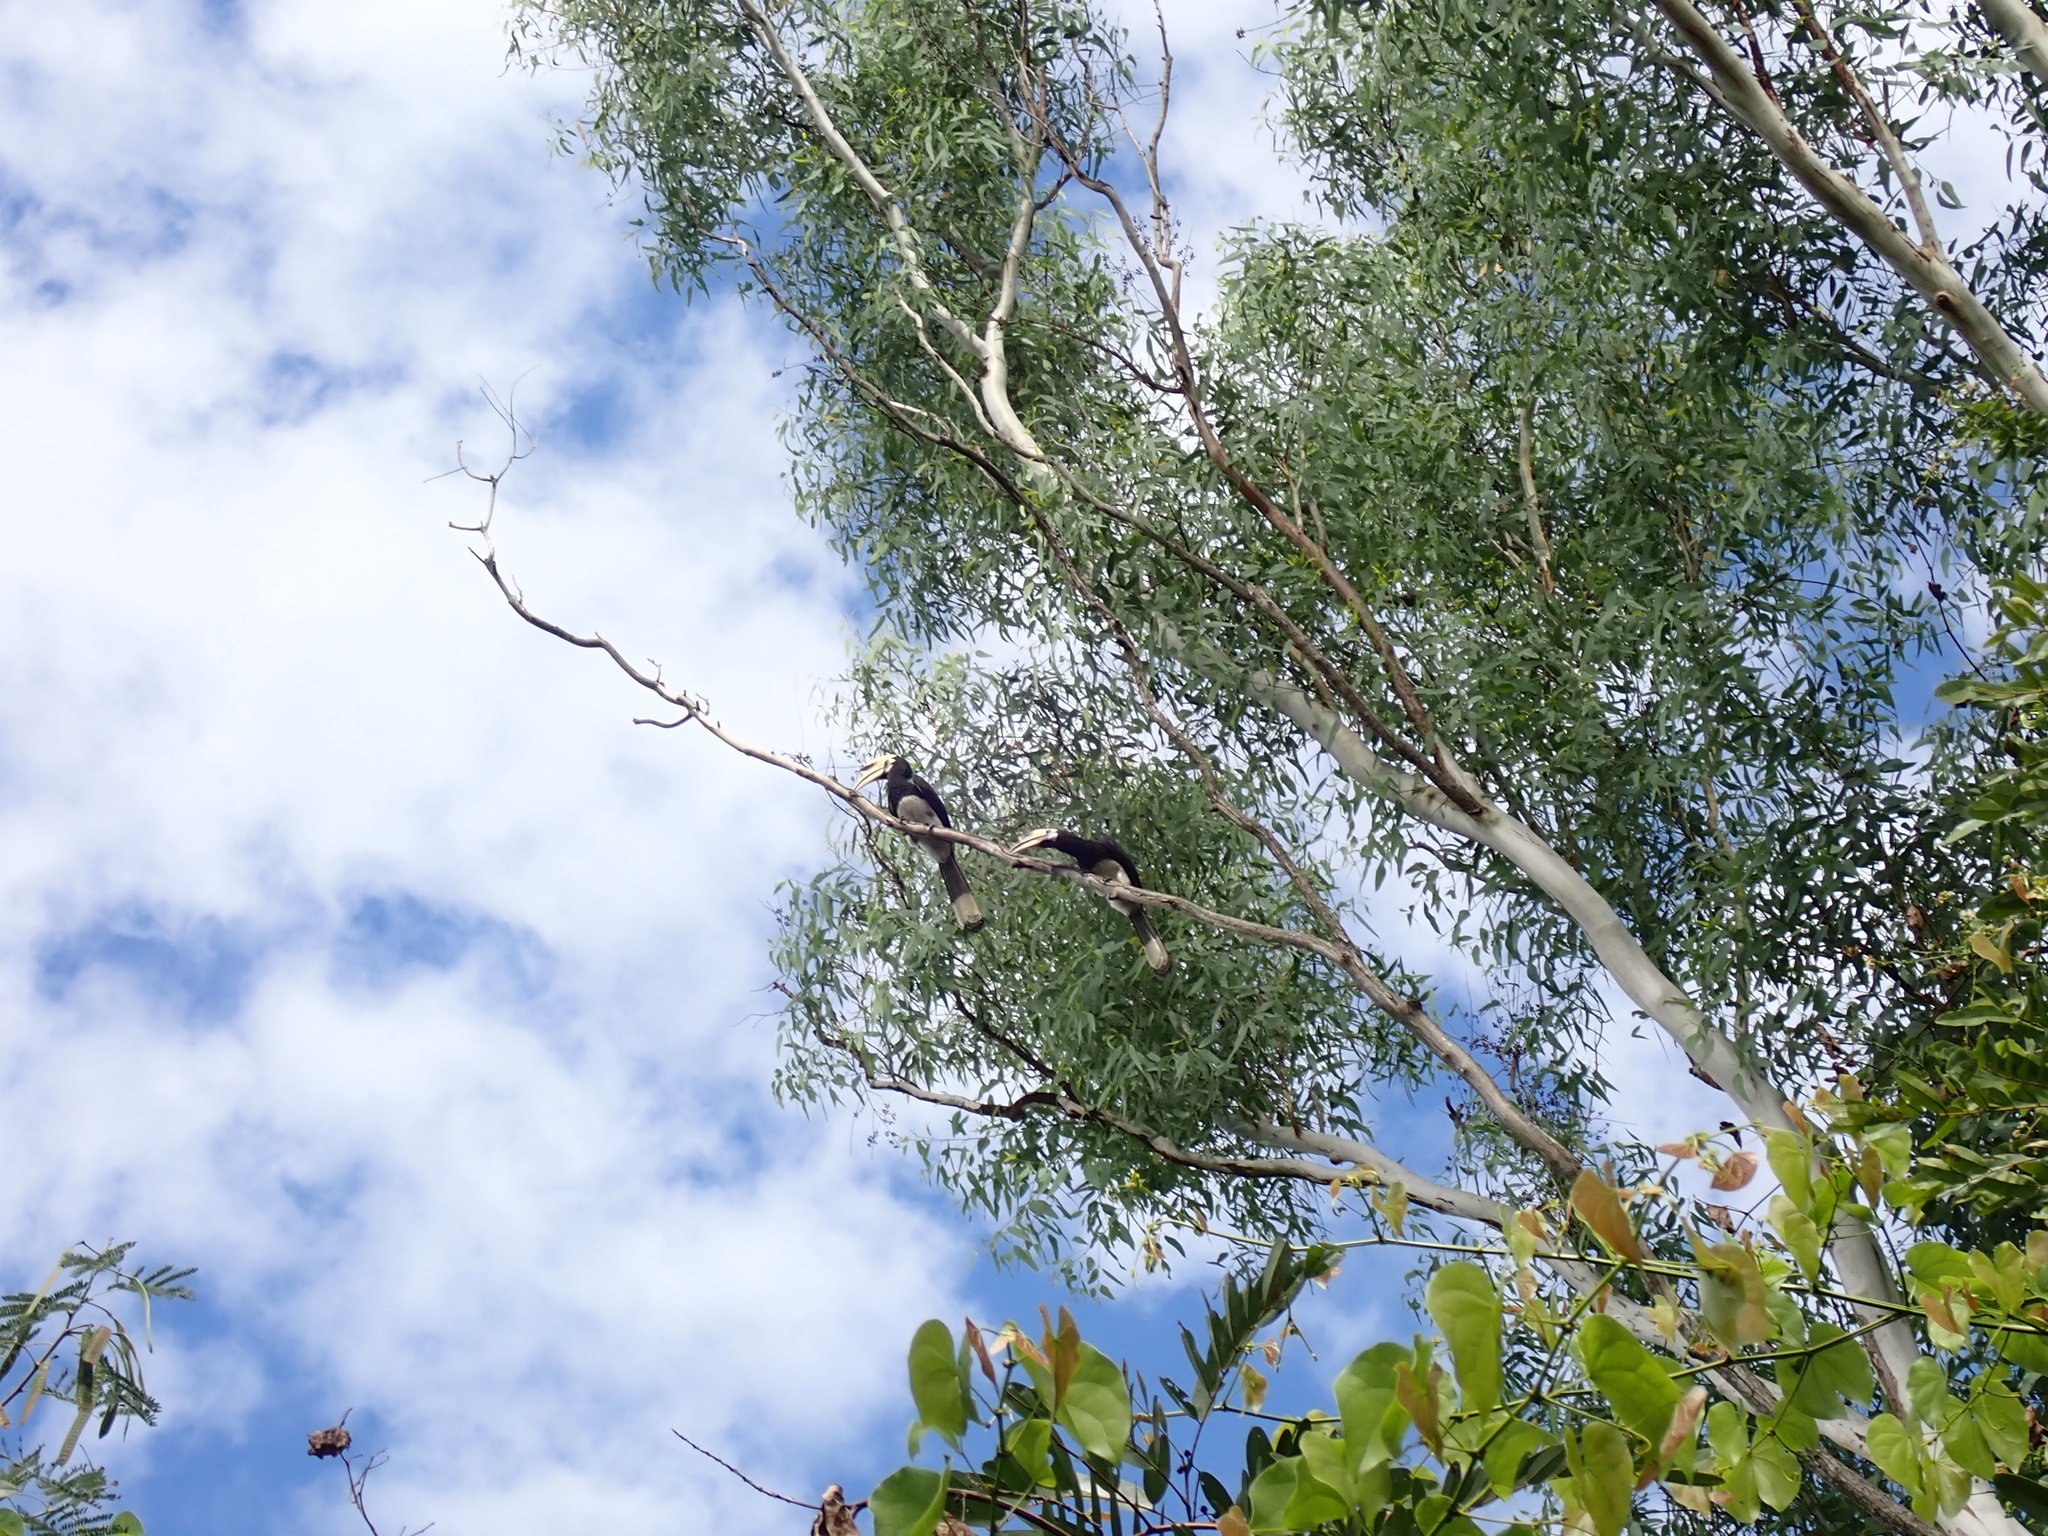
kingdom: Animalia
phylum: Chordata
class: Aves
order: Bucerotiformes
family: Bucerotidae
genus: Anthracoceros
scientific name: Anthracoceros albirostris
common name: Oriental pied-hornbill
